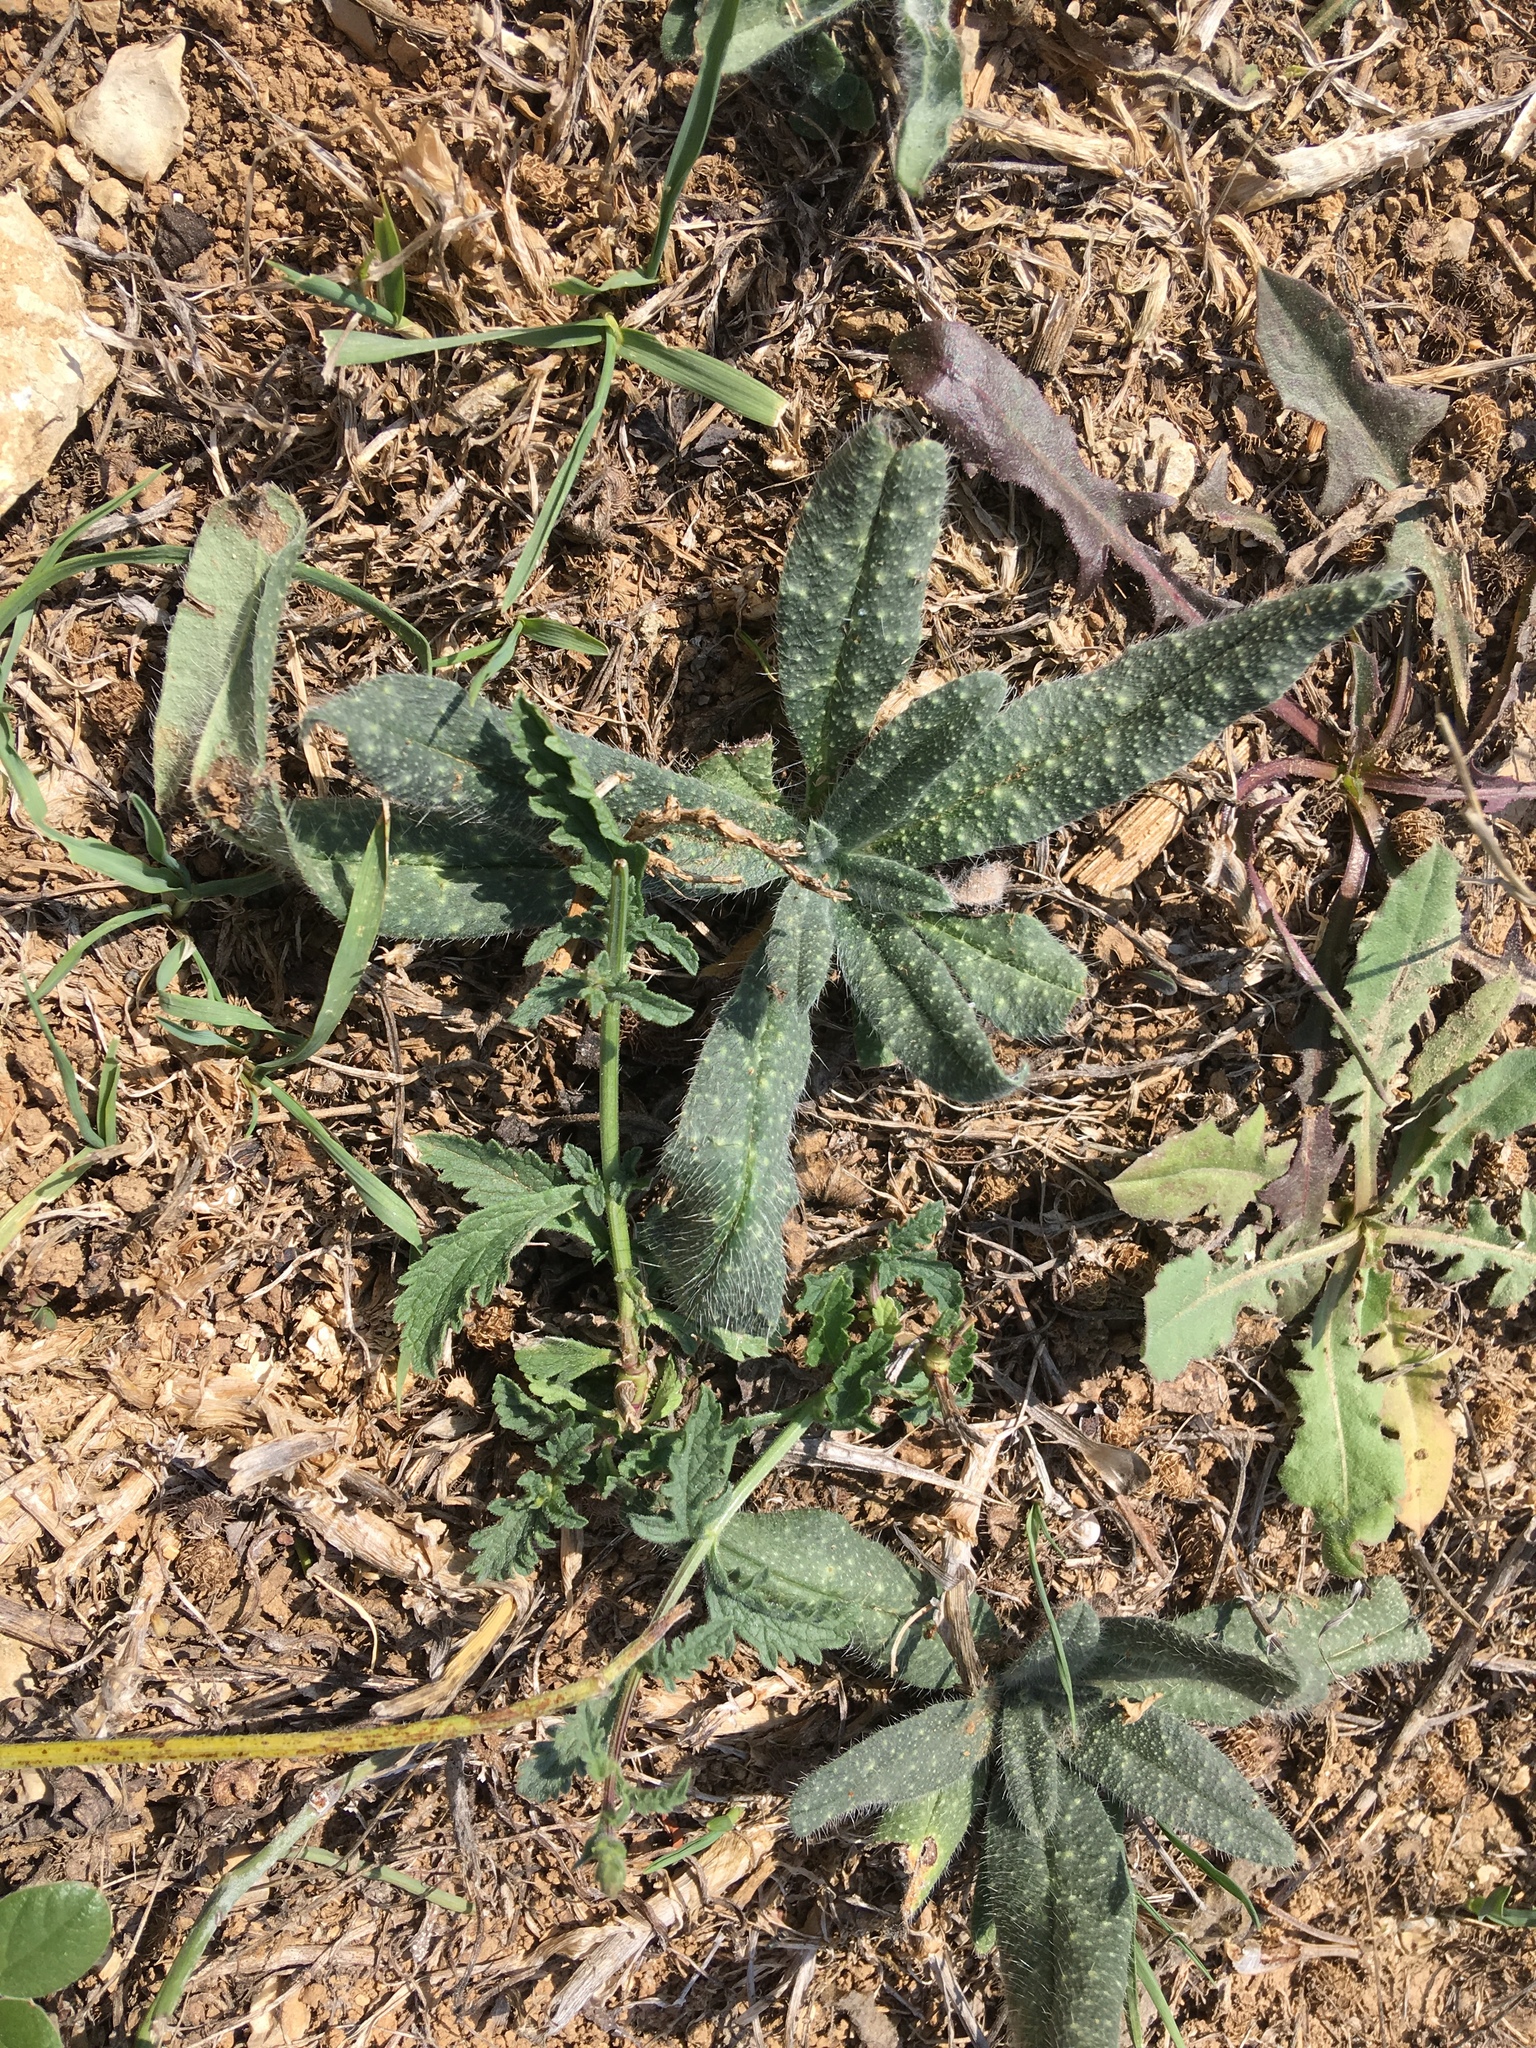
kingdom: Plantae
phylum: Tracheophyta
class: Magnoliopsida
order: Boraginales
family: Boraginaceae
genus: Echium
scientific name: Echium vulgare
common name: Common viper's bugloss
